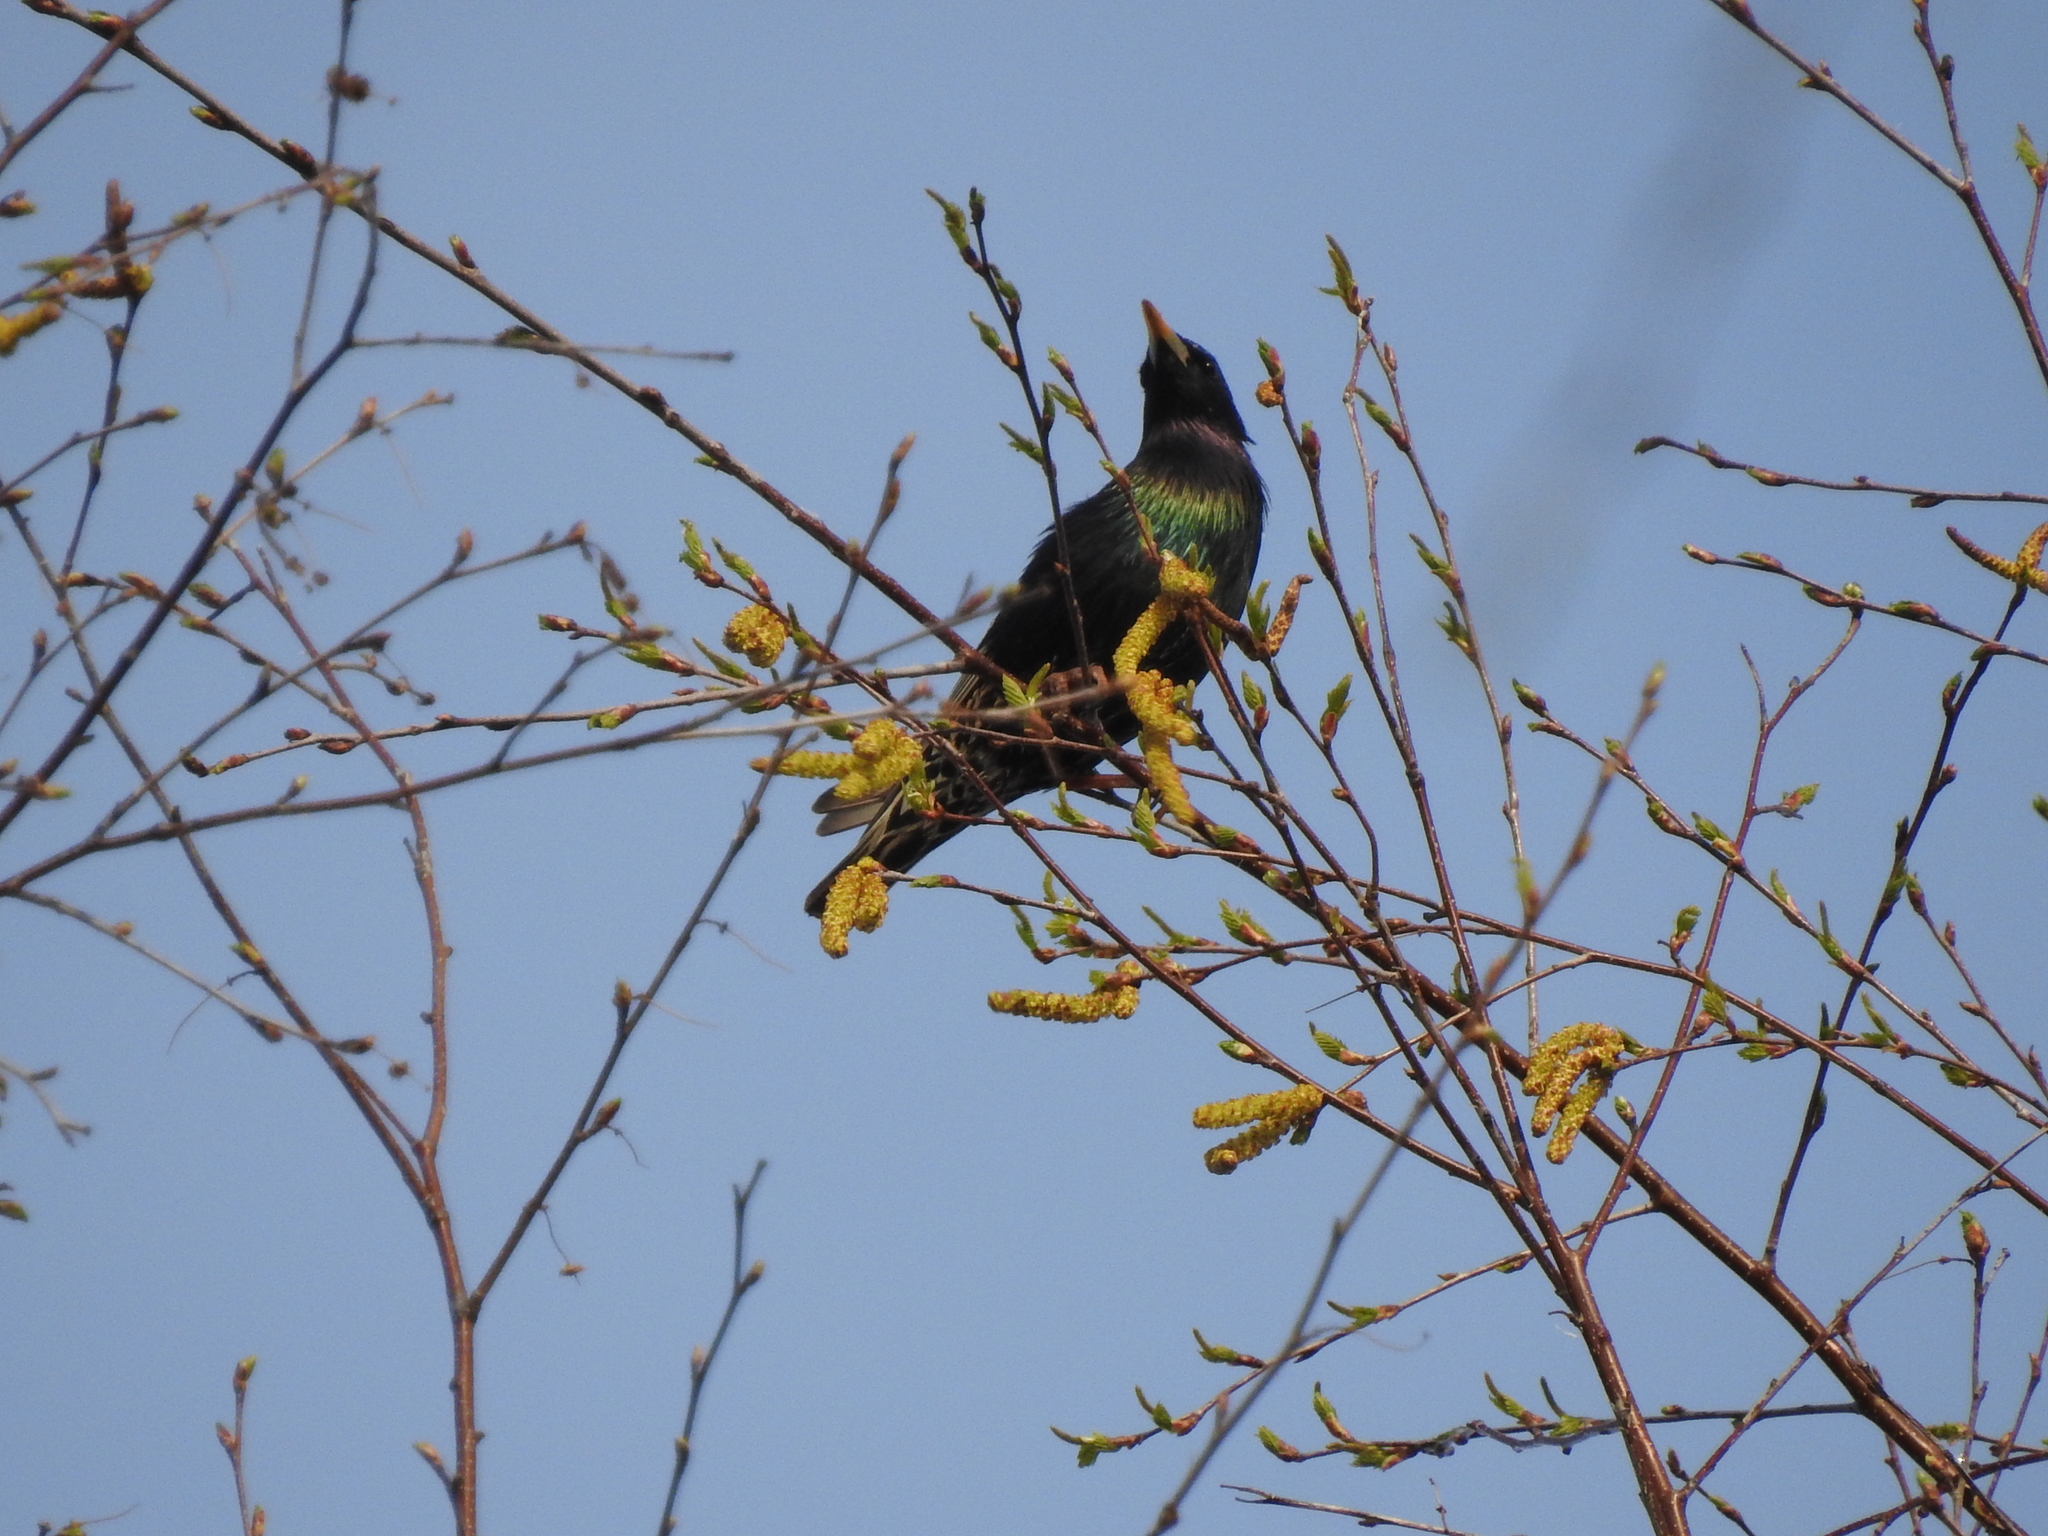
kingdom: Animalia
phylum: Chordata
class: Aves
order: Passeriformes
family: Sturnidae
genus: Sturnus
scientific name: Sturnus vulgaris
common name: Common starling
